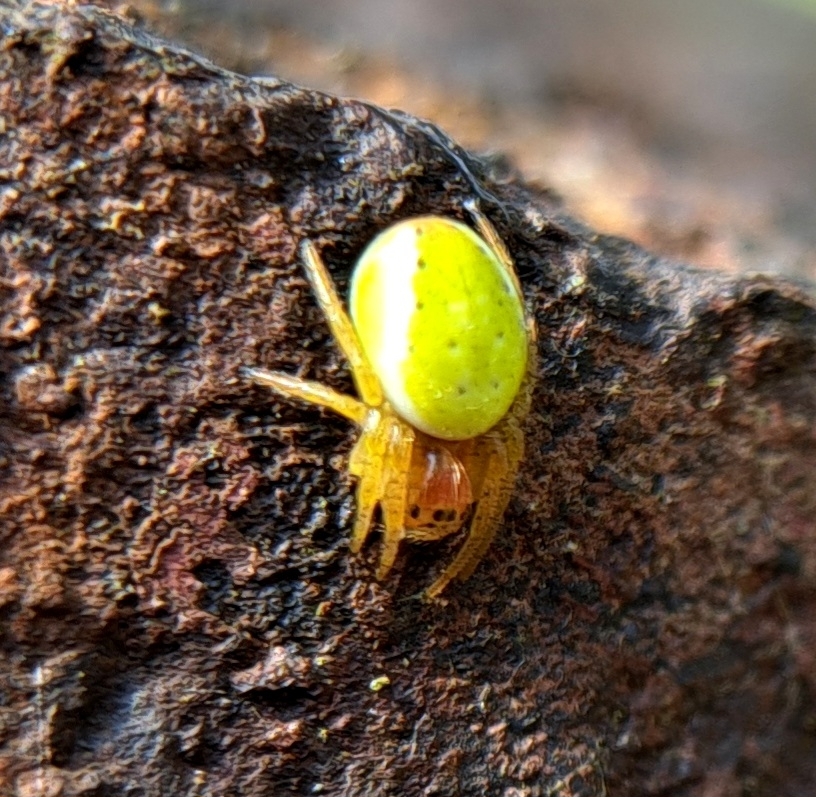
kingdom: Animalia
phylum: Arthropoda
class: Arachnida
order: Araneae
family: Araneidae
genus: Araniella
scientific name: Araniella
